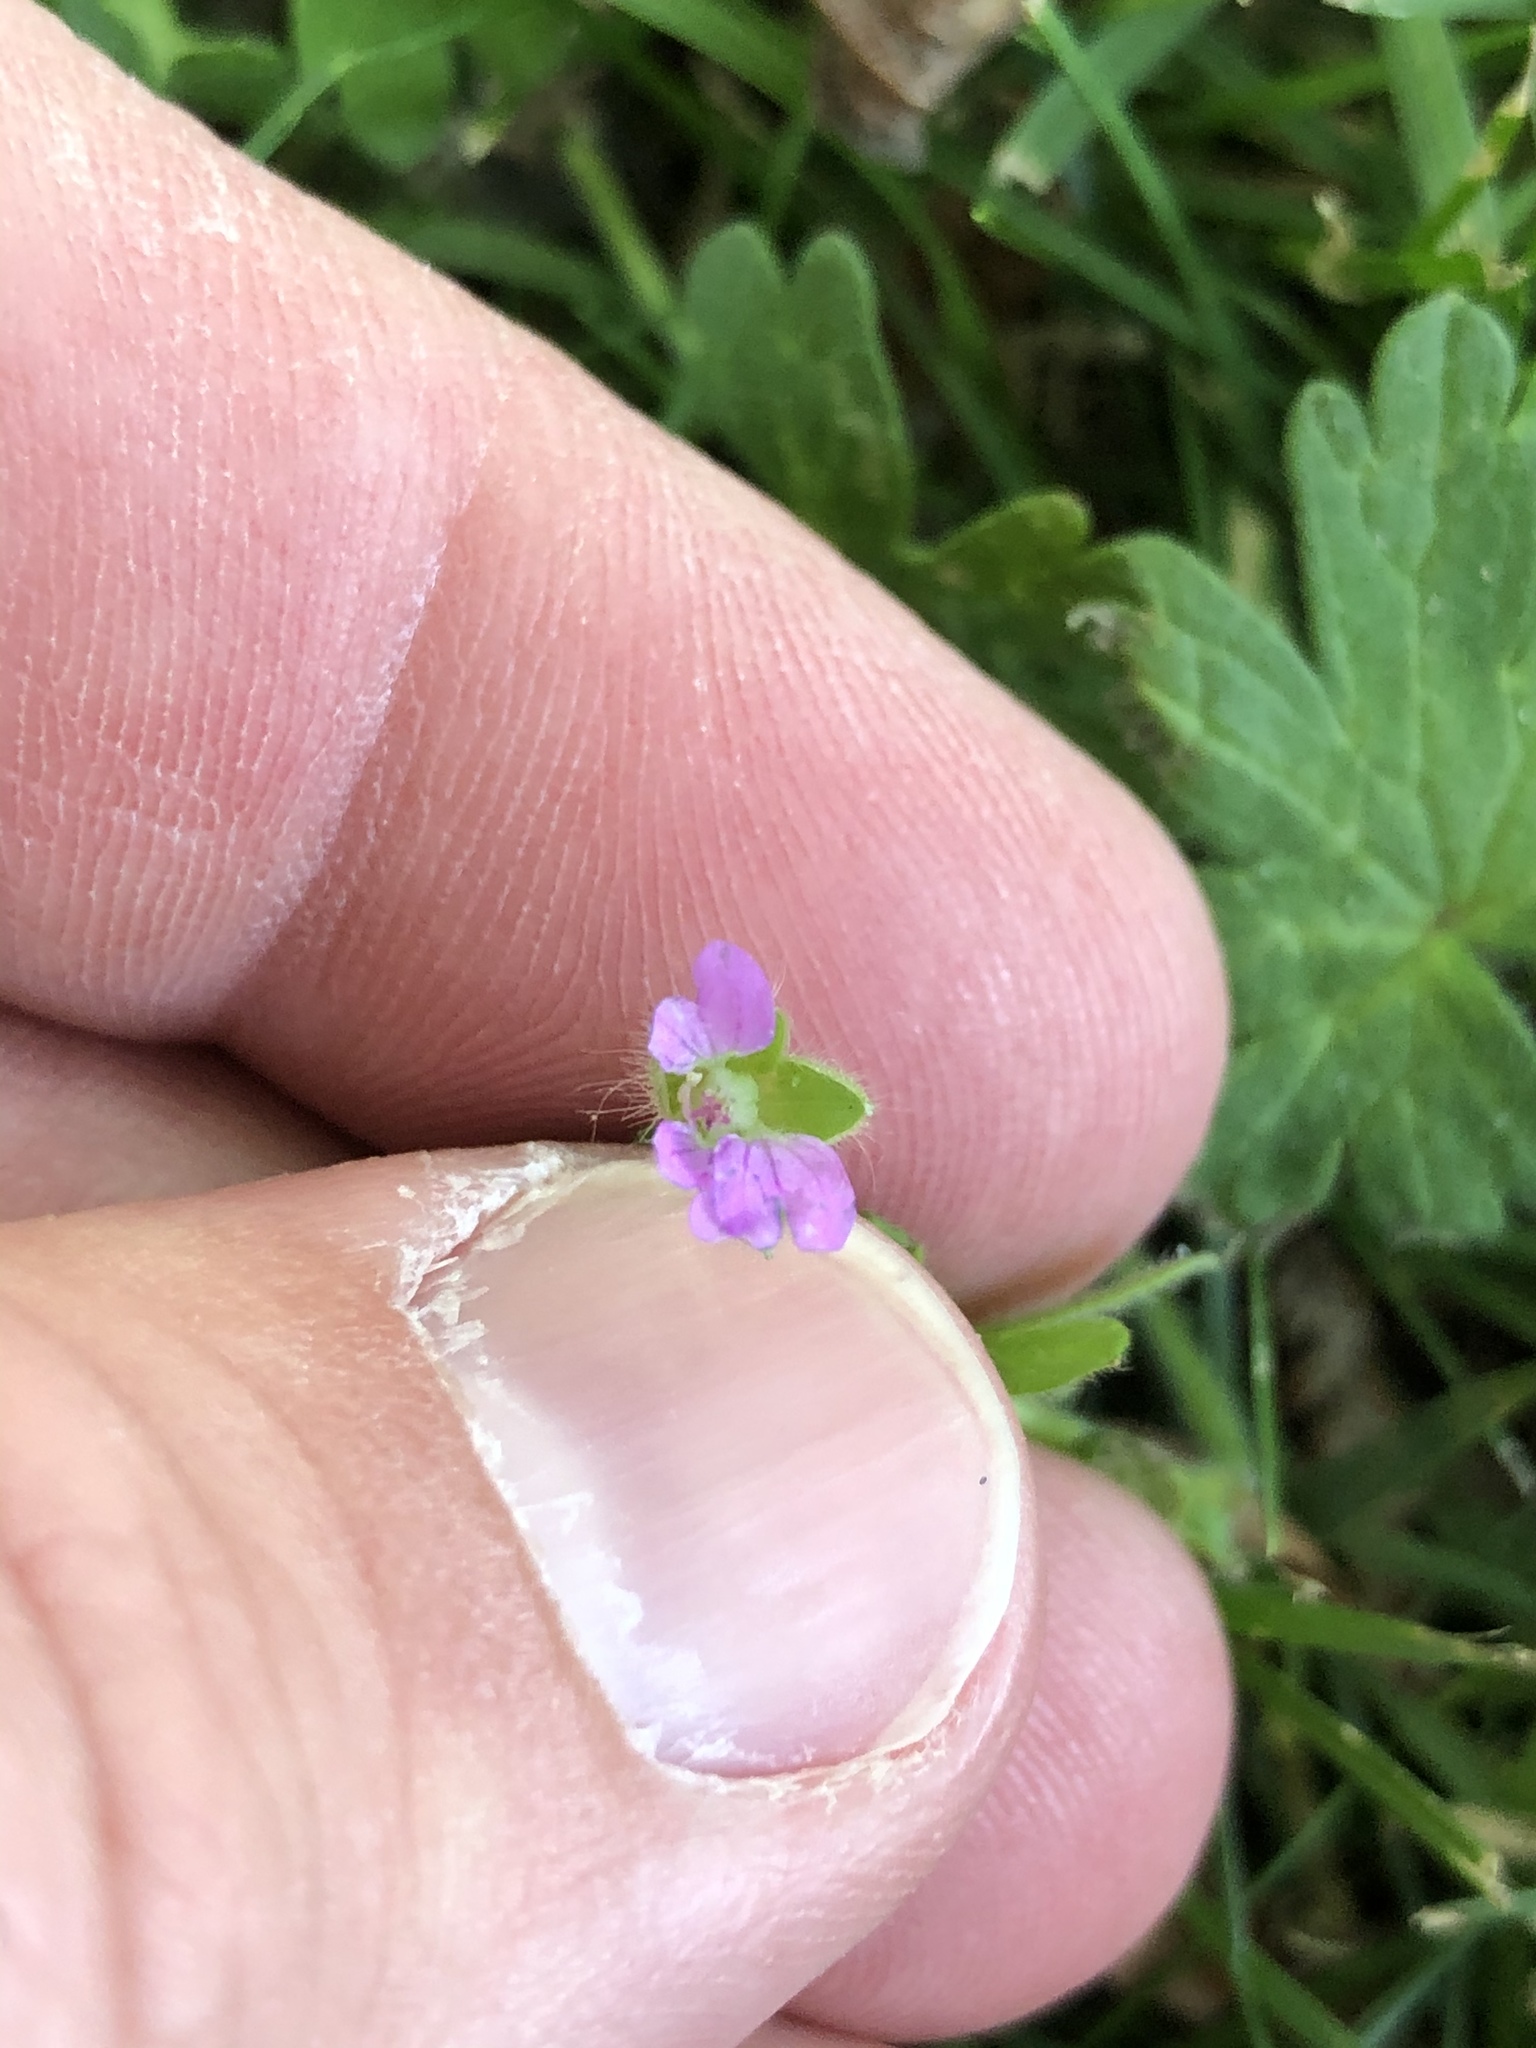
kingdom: Plantae
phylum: Tracheophyta
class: Magnoliopsida
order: Geraniales
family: Geraniaceae
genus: Geranium
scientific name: Geranium molle
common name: Dove's-foot crane's-bill
